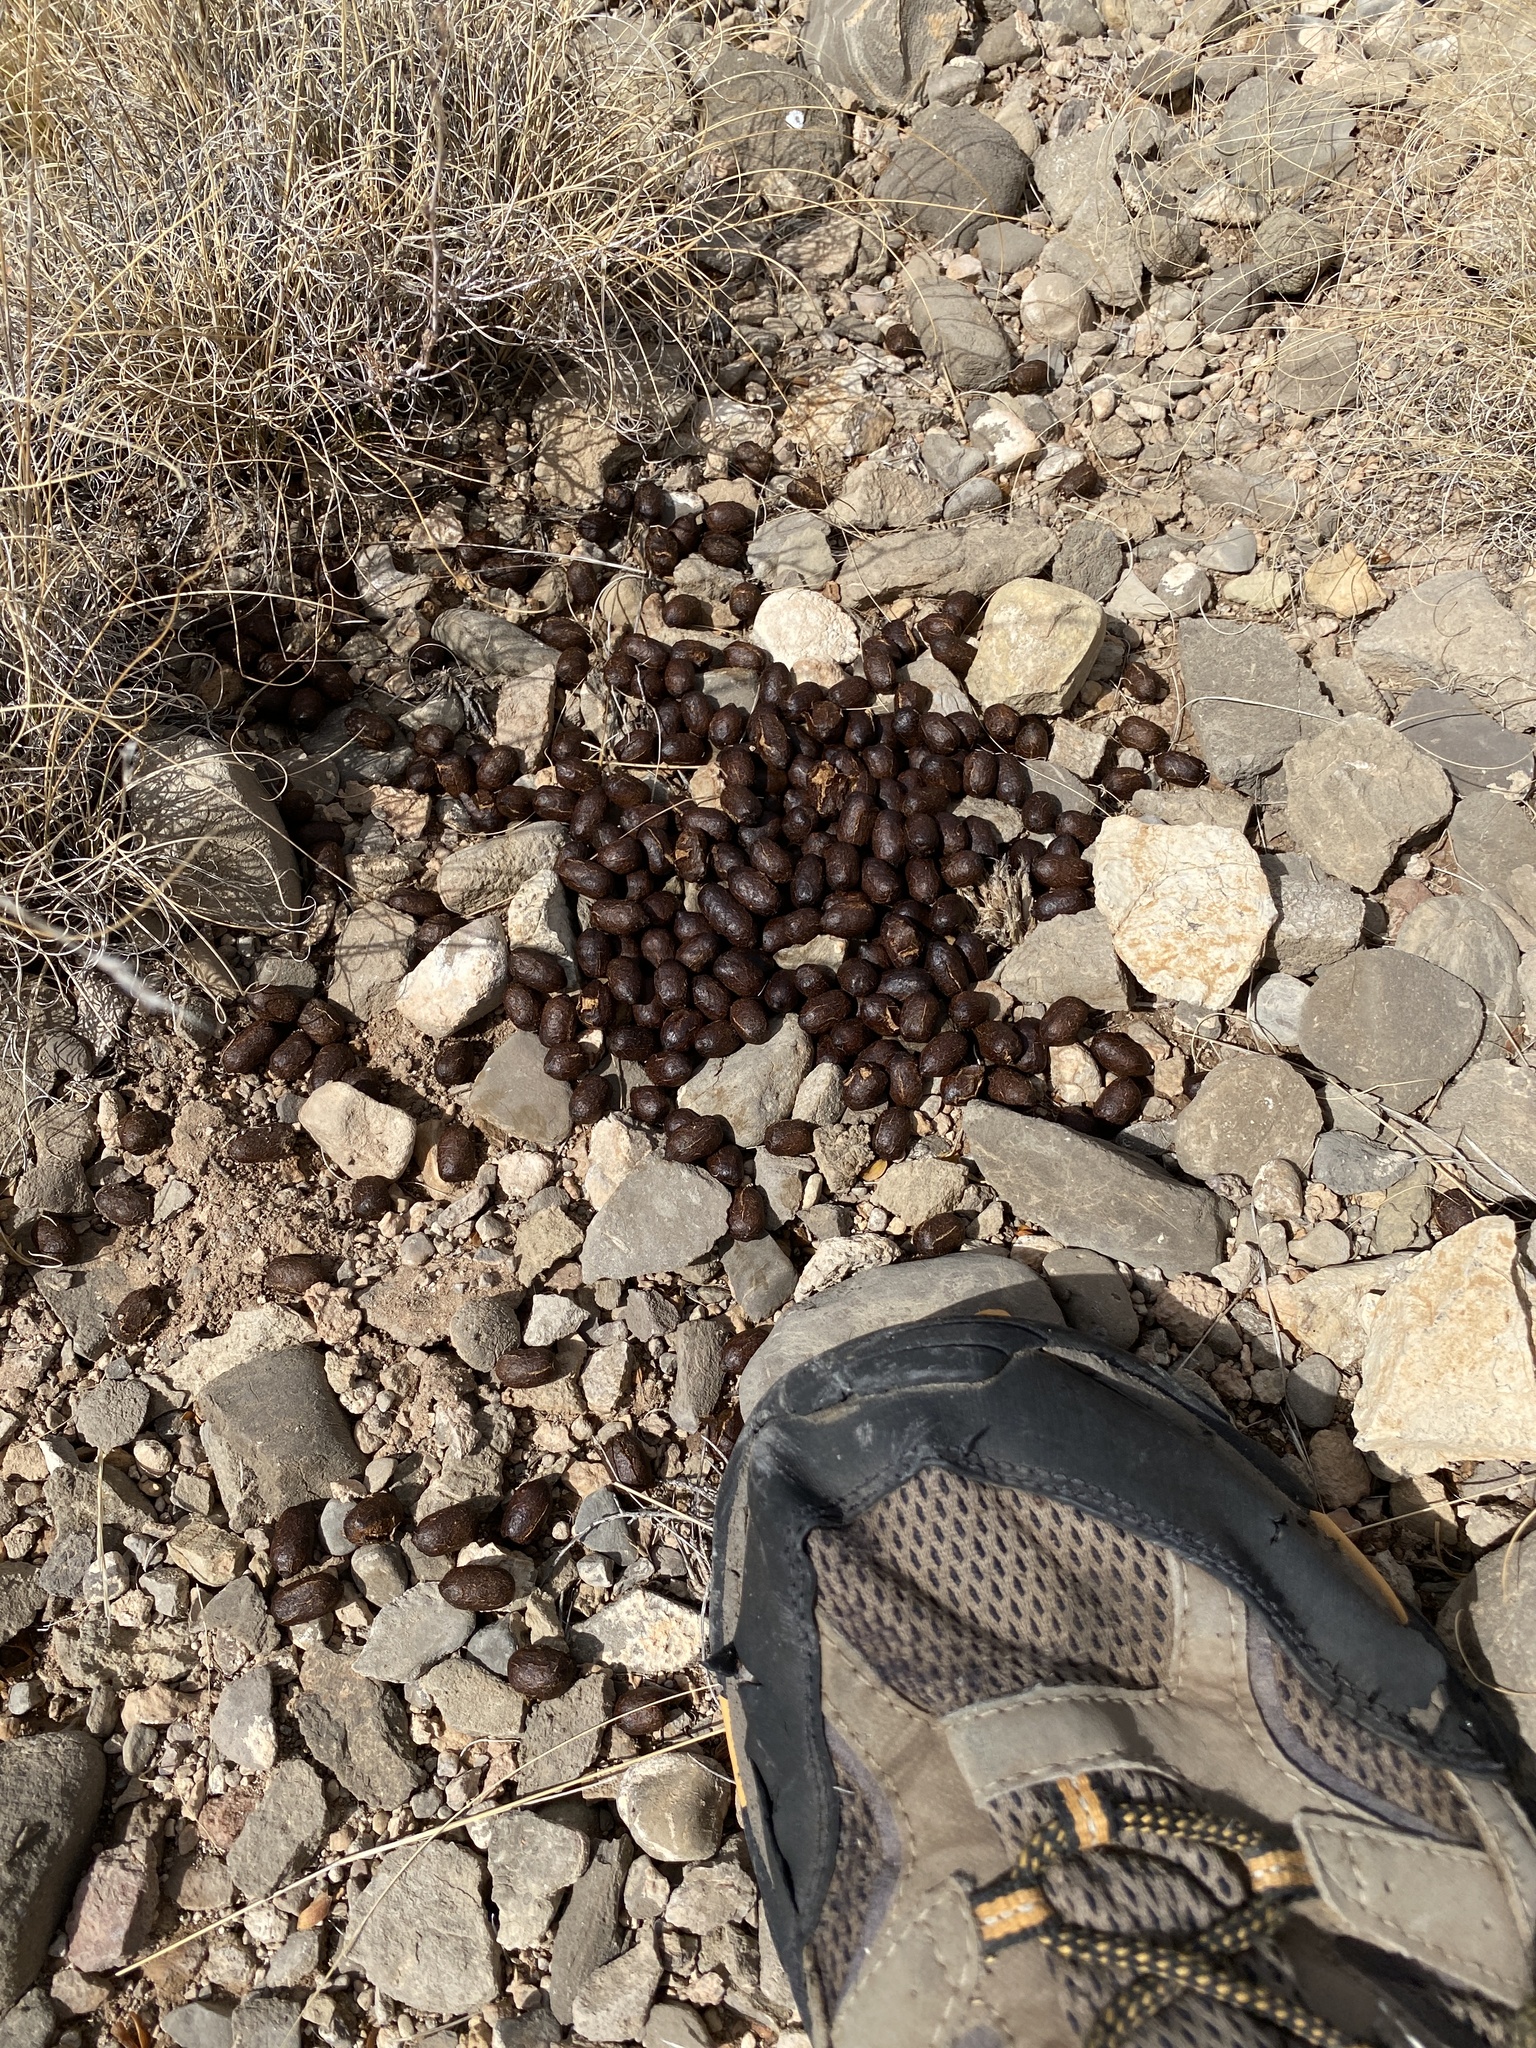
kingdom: Animalia
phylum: Chordata
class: Mammalia
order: Artiodactyla
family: Cervidae
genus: Odocoileus
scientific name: Odocoileus hemionus
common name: Mule deer
